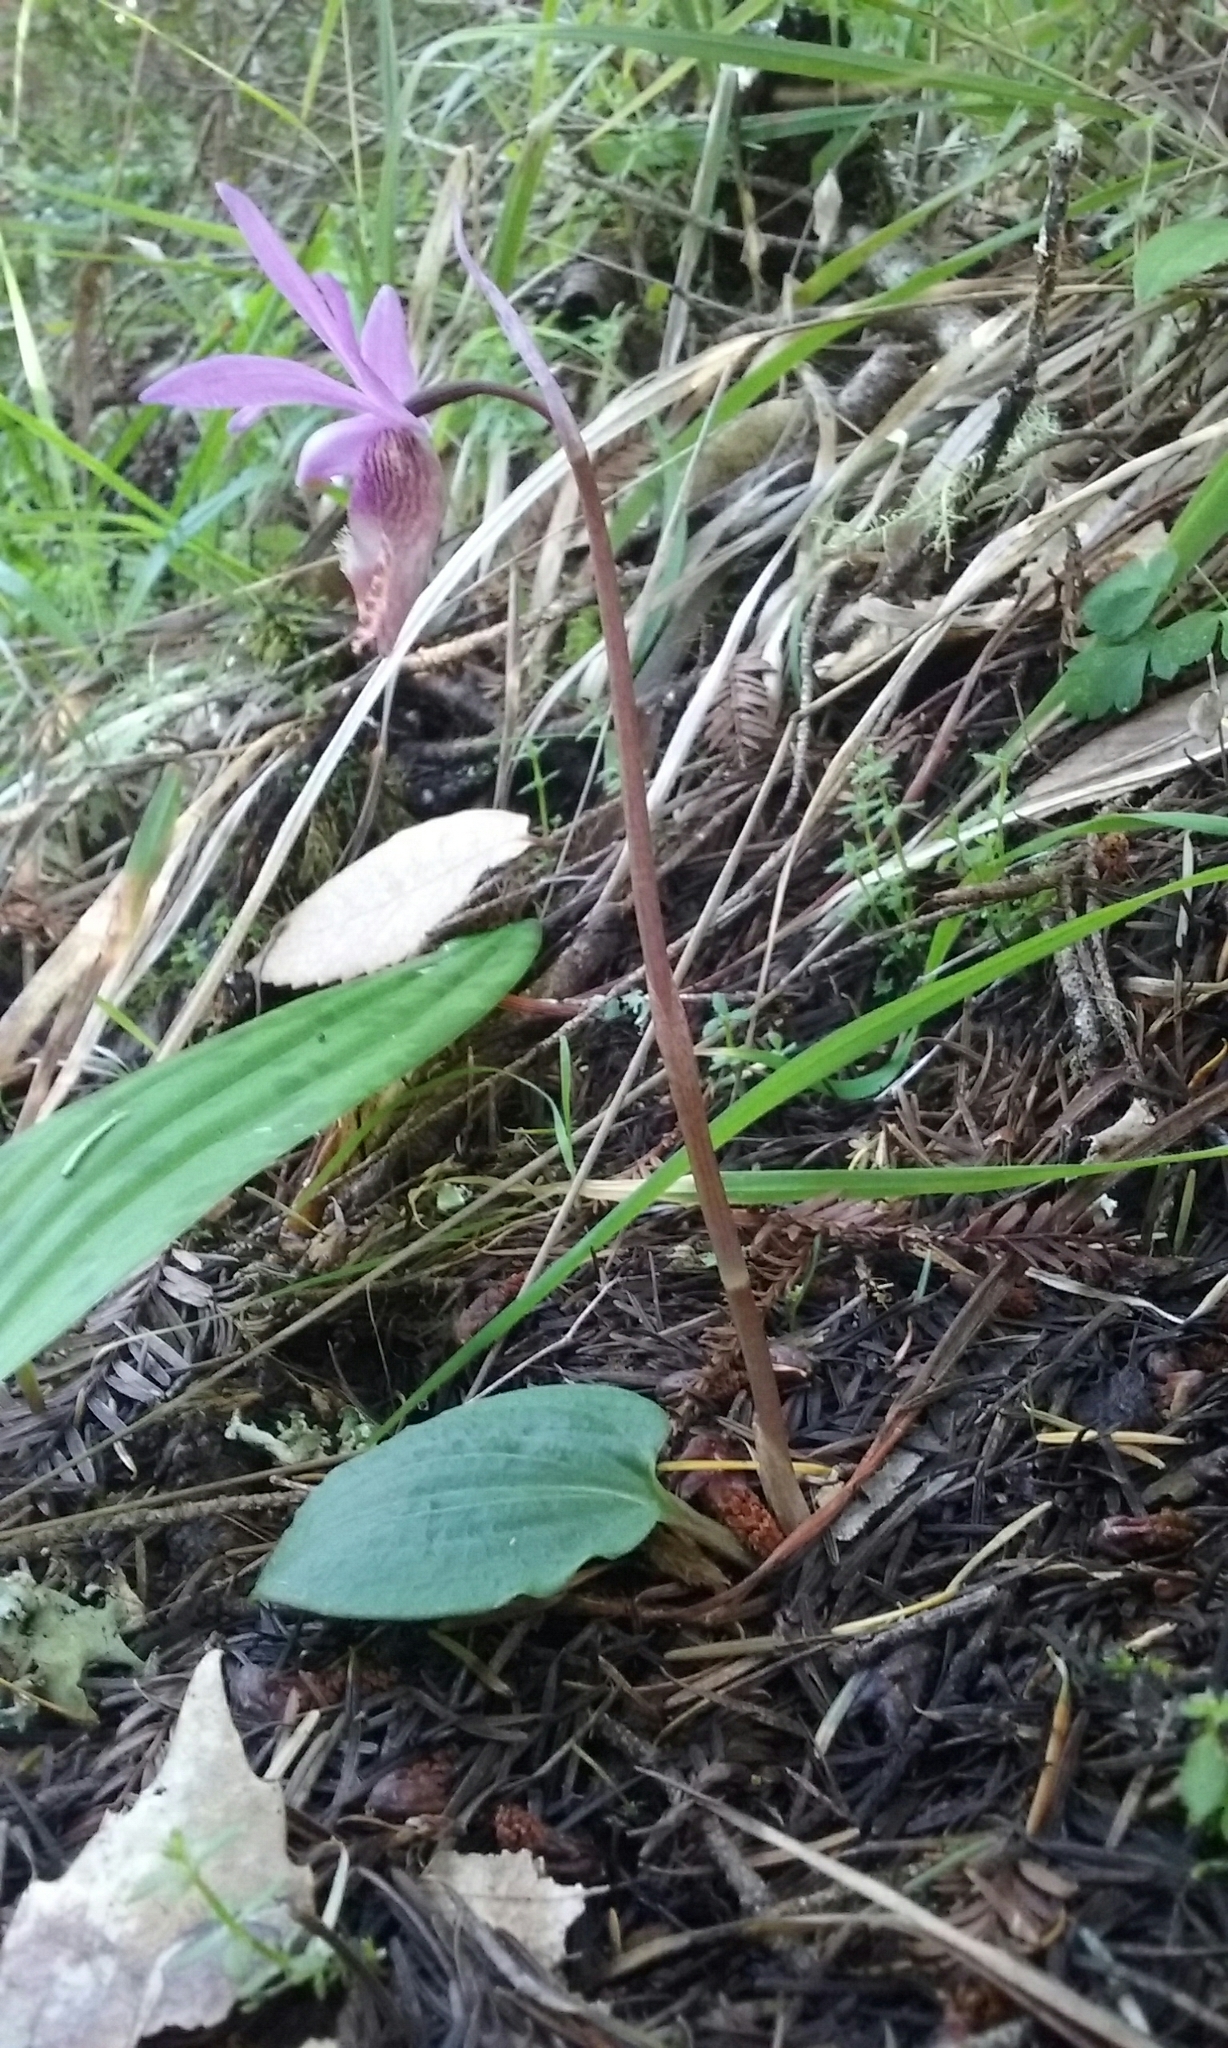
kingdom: Plantae
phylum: Tracheophyta
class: Liliopsida
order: Asparagales
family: Orchidaceae
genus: Calypso
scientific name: Calypso bulbosa
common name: Calypso
